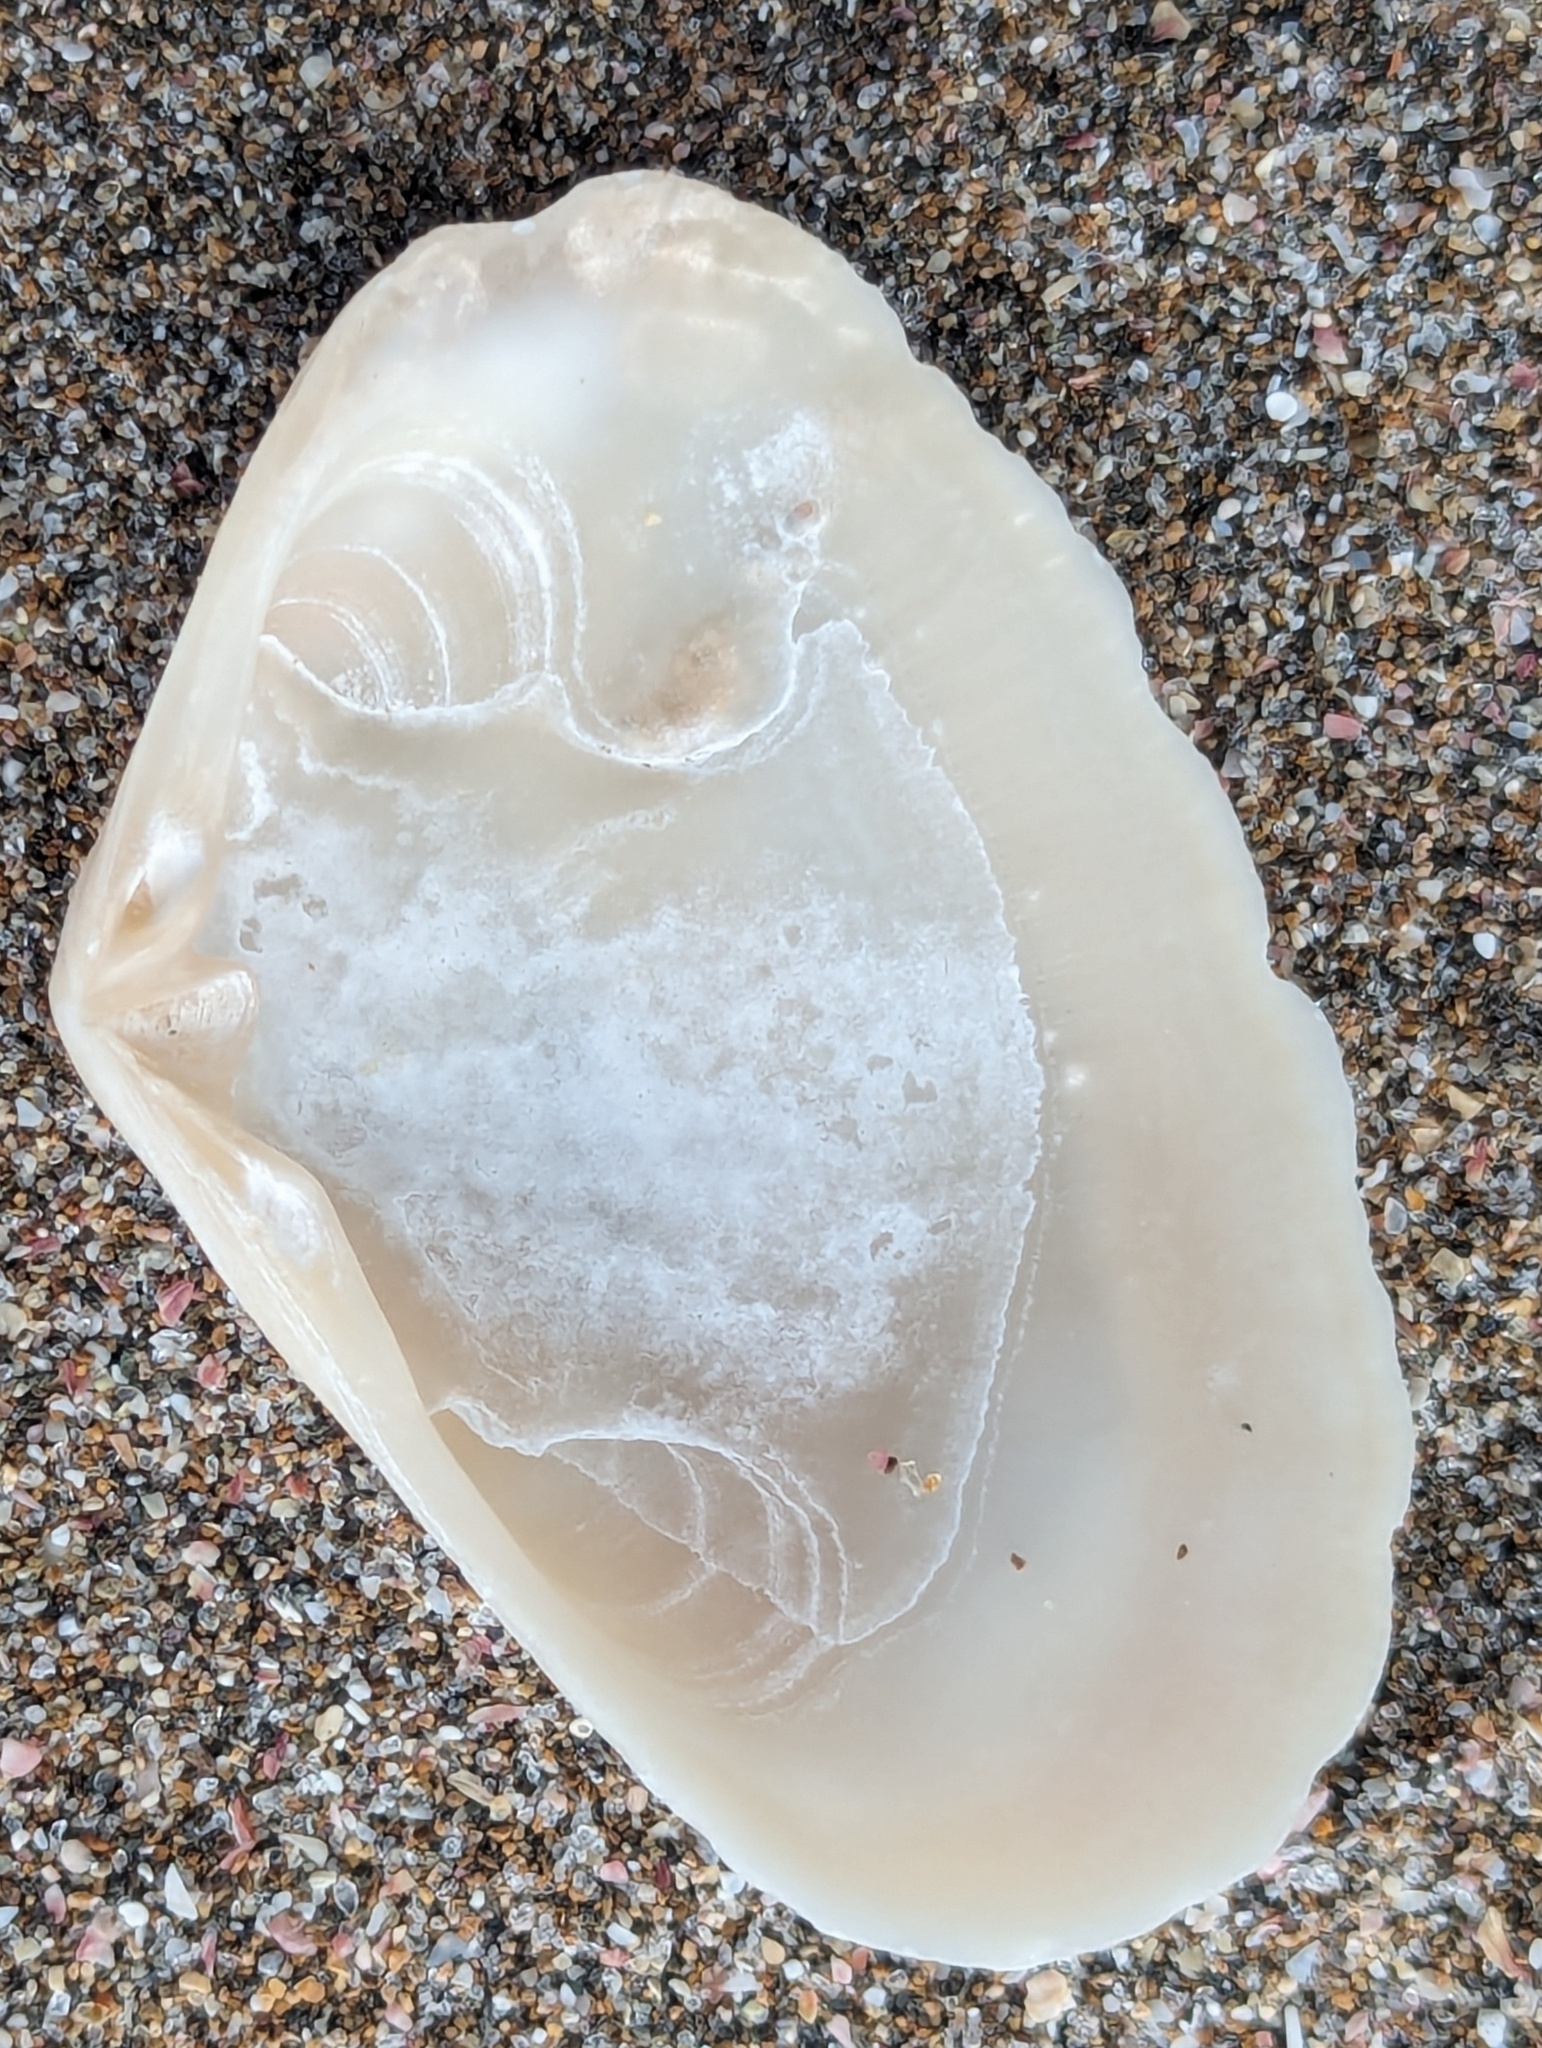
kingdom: Animalia
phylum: Mollusca
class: Bivalvia
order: Venerida
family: Mesodesmatidae
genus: Paphies
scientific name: Paphies subtriangulata
